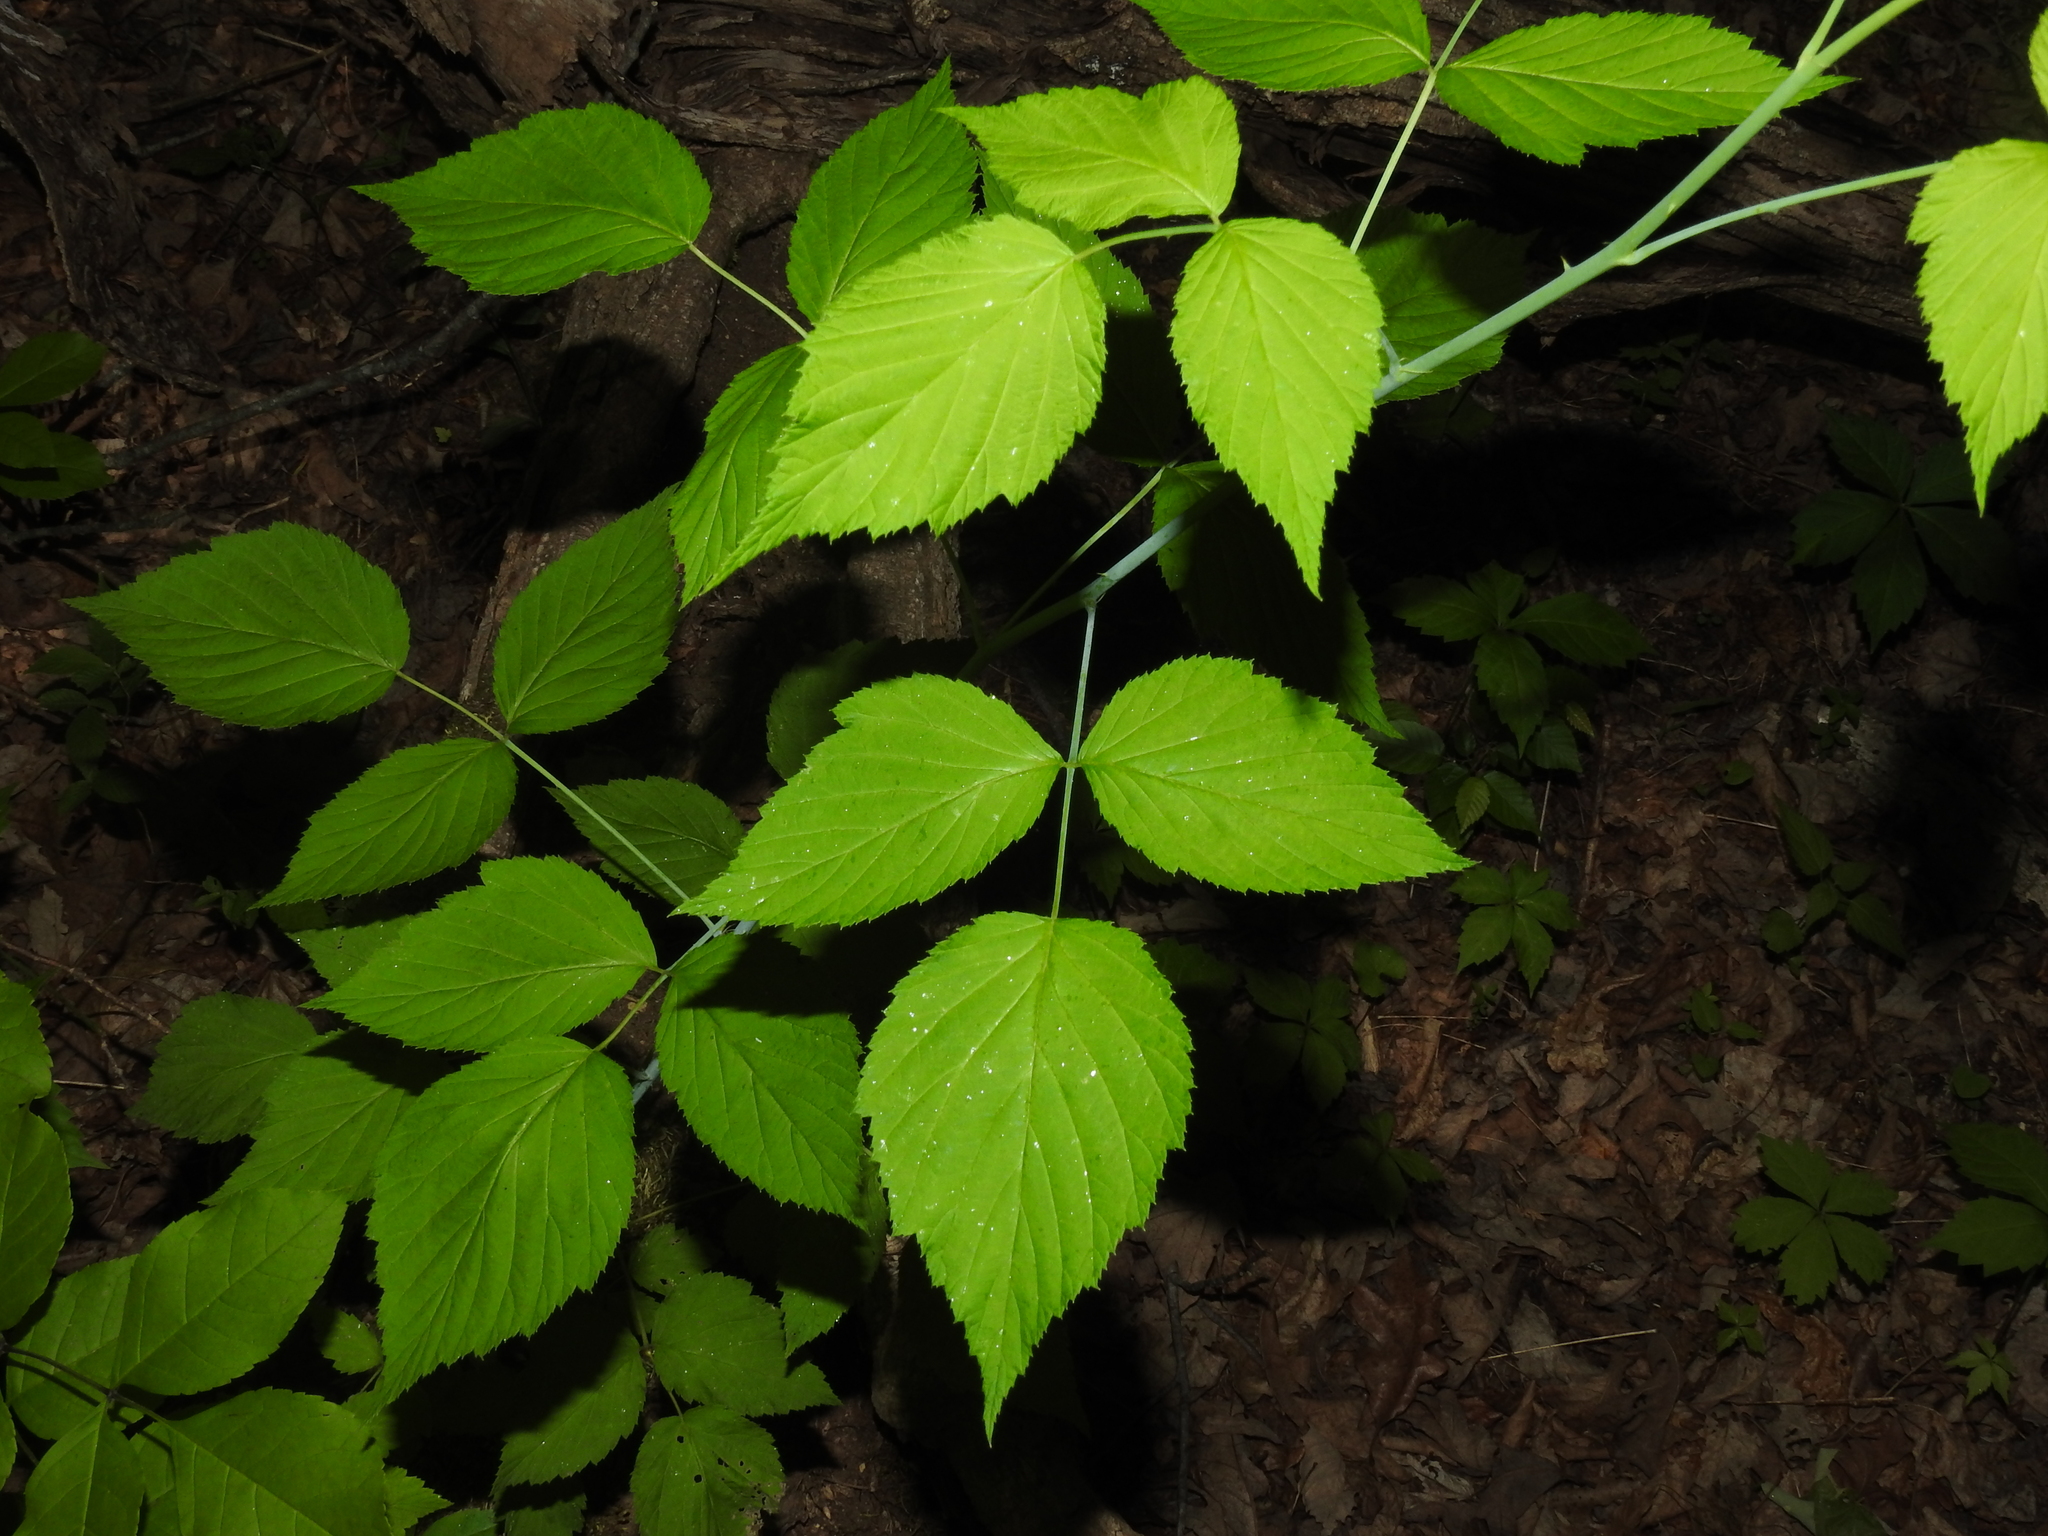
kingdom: Plantae
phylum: Tracheophyta
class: Magnoliopsida
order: Rosales
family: Rosaceae
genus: Rubus
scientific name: Rubus occidentalis
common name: Black raspberry
